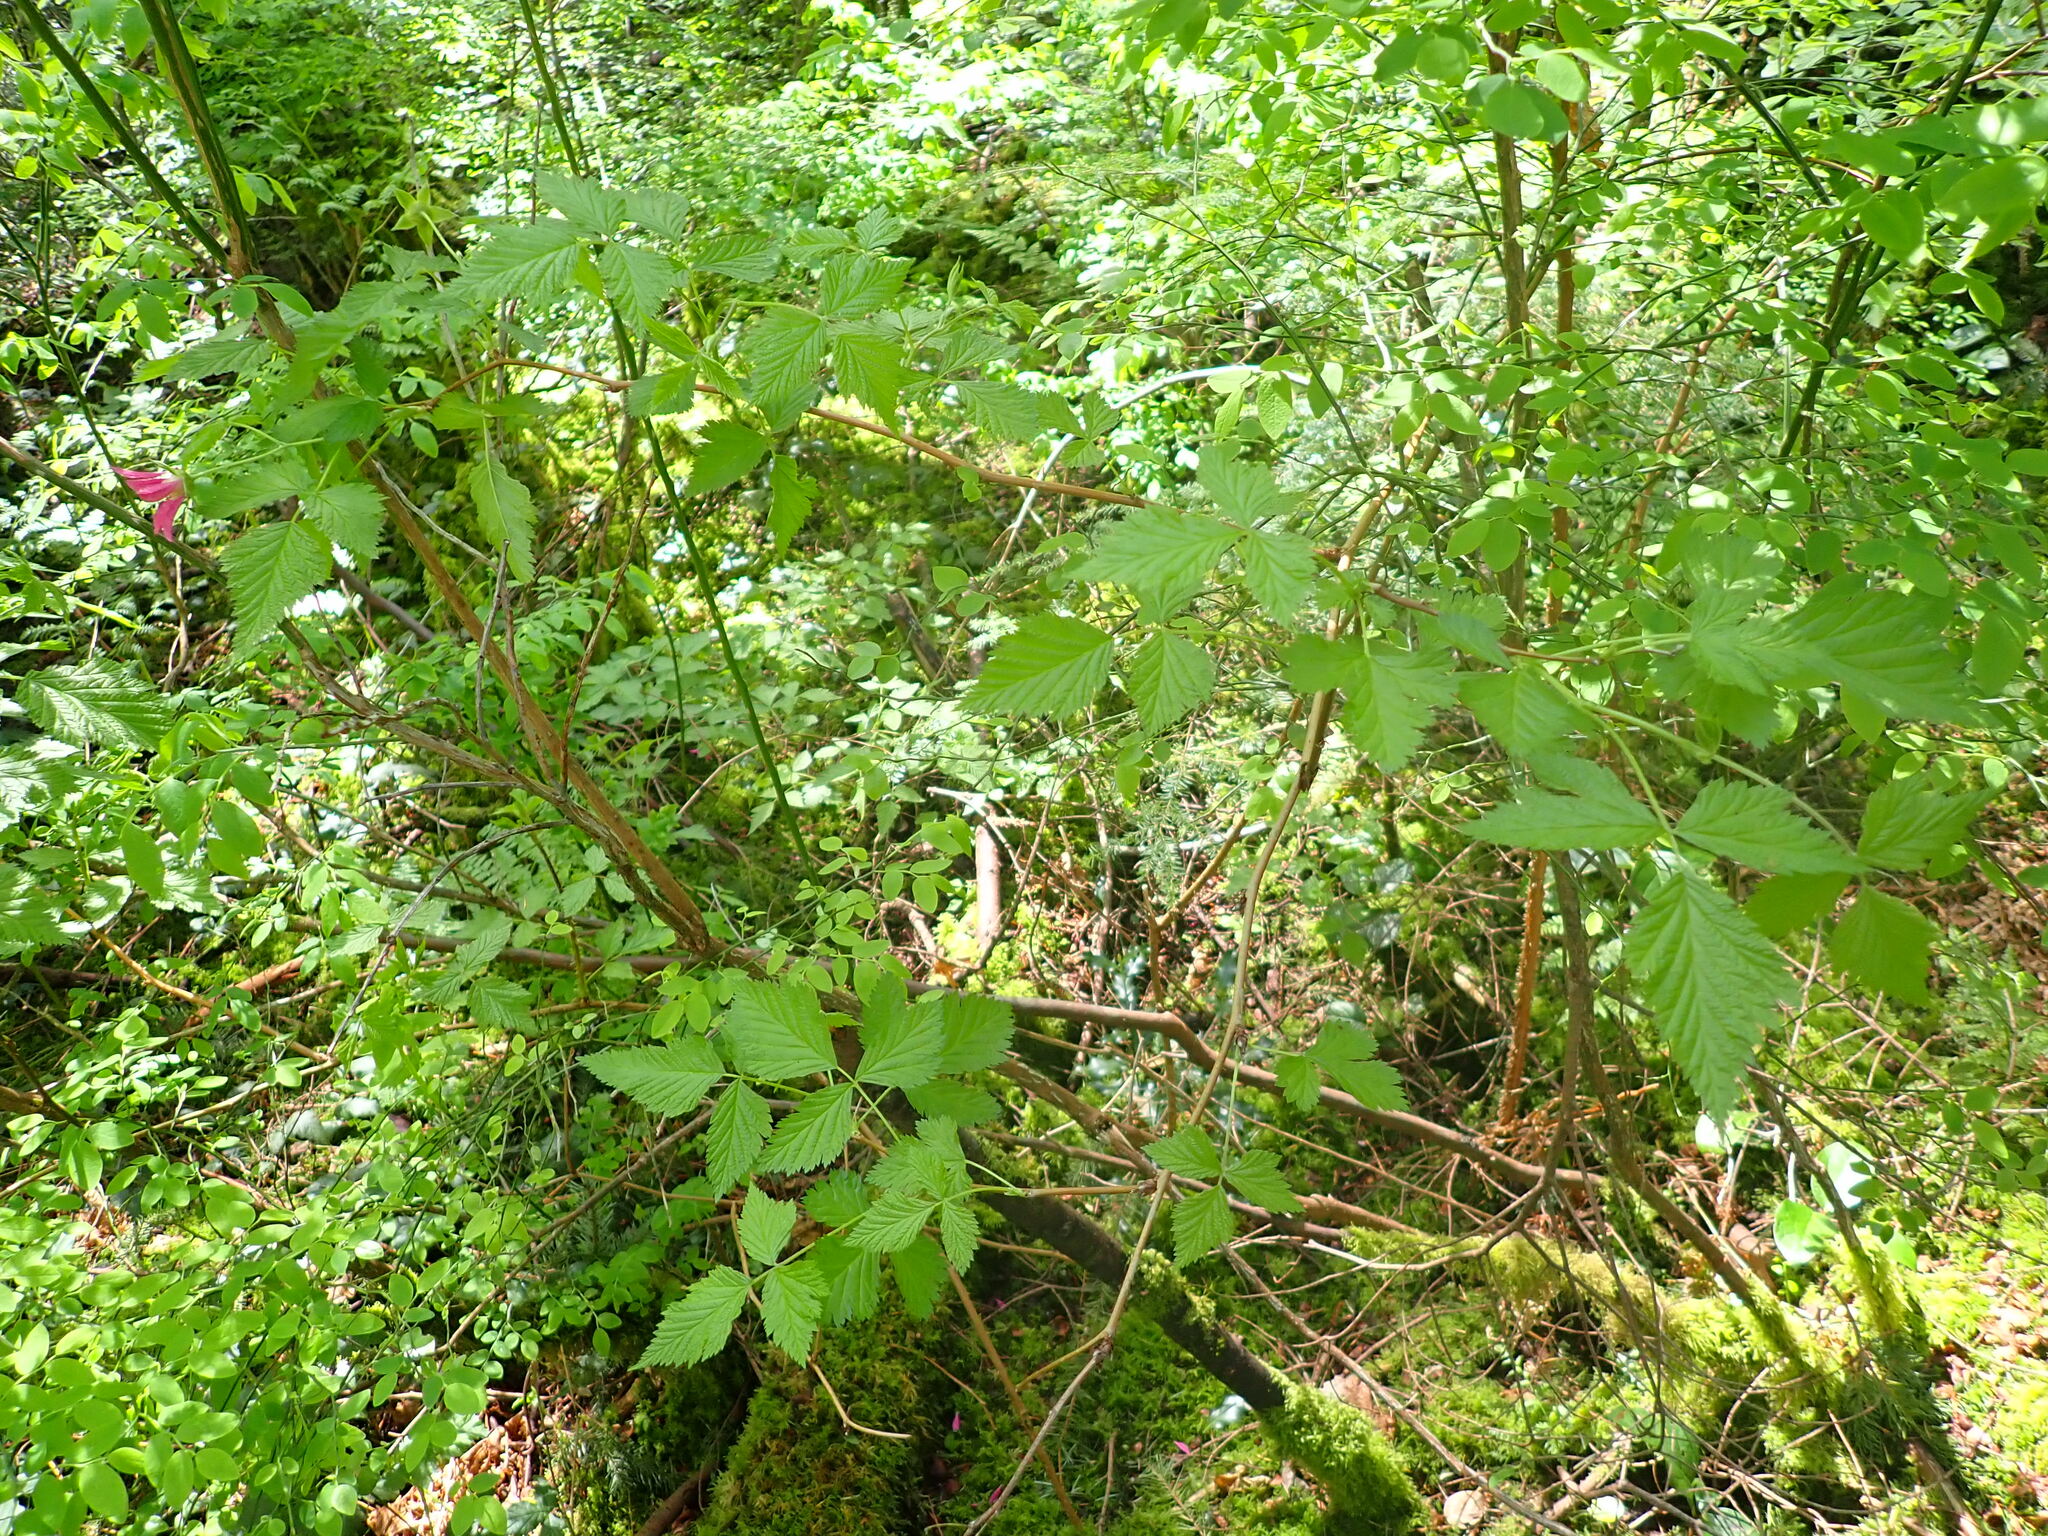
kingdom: Plantae
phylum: Tracheophyta
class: Magnoliopsida
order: Rosales
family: Rosaceae
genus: Rubus
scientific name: Rubus spectabilis
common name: Salmonberry
